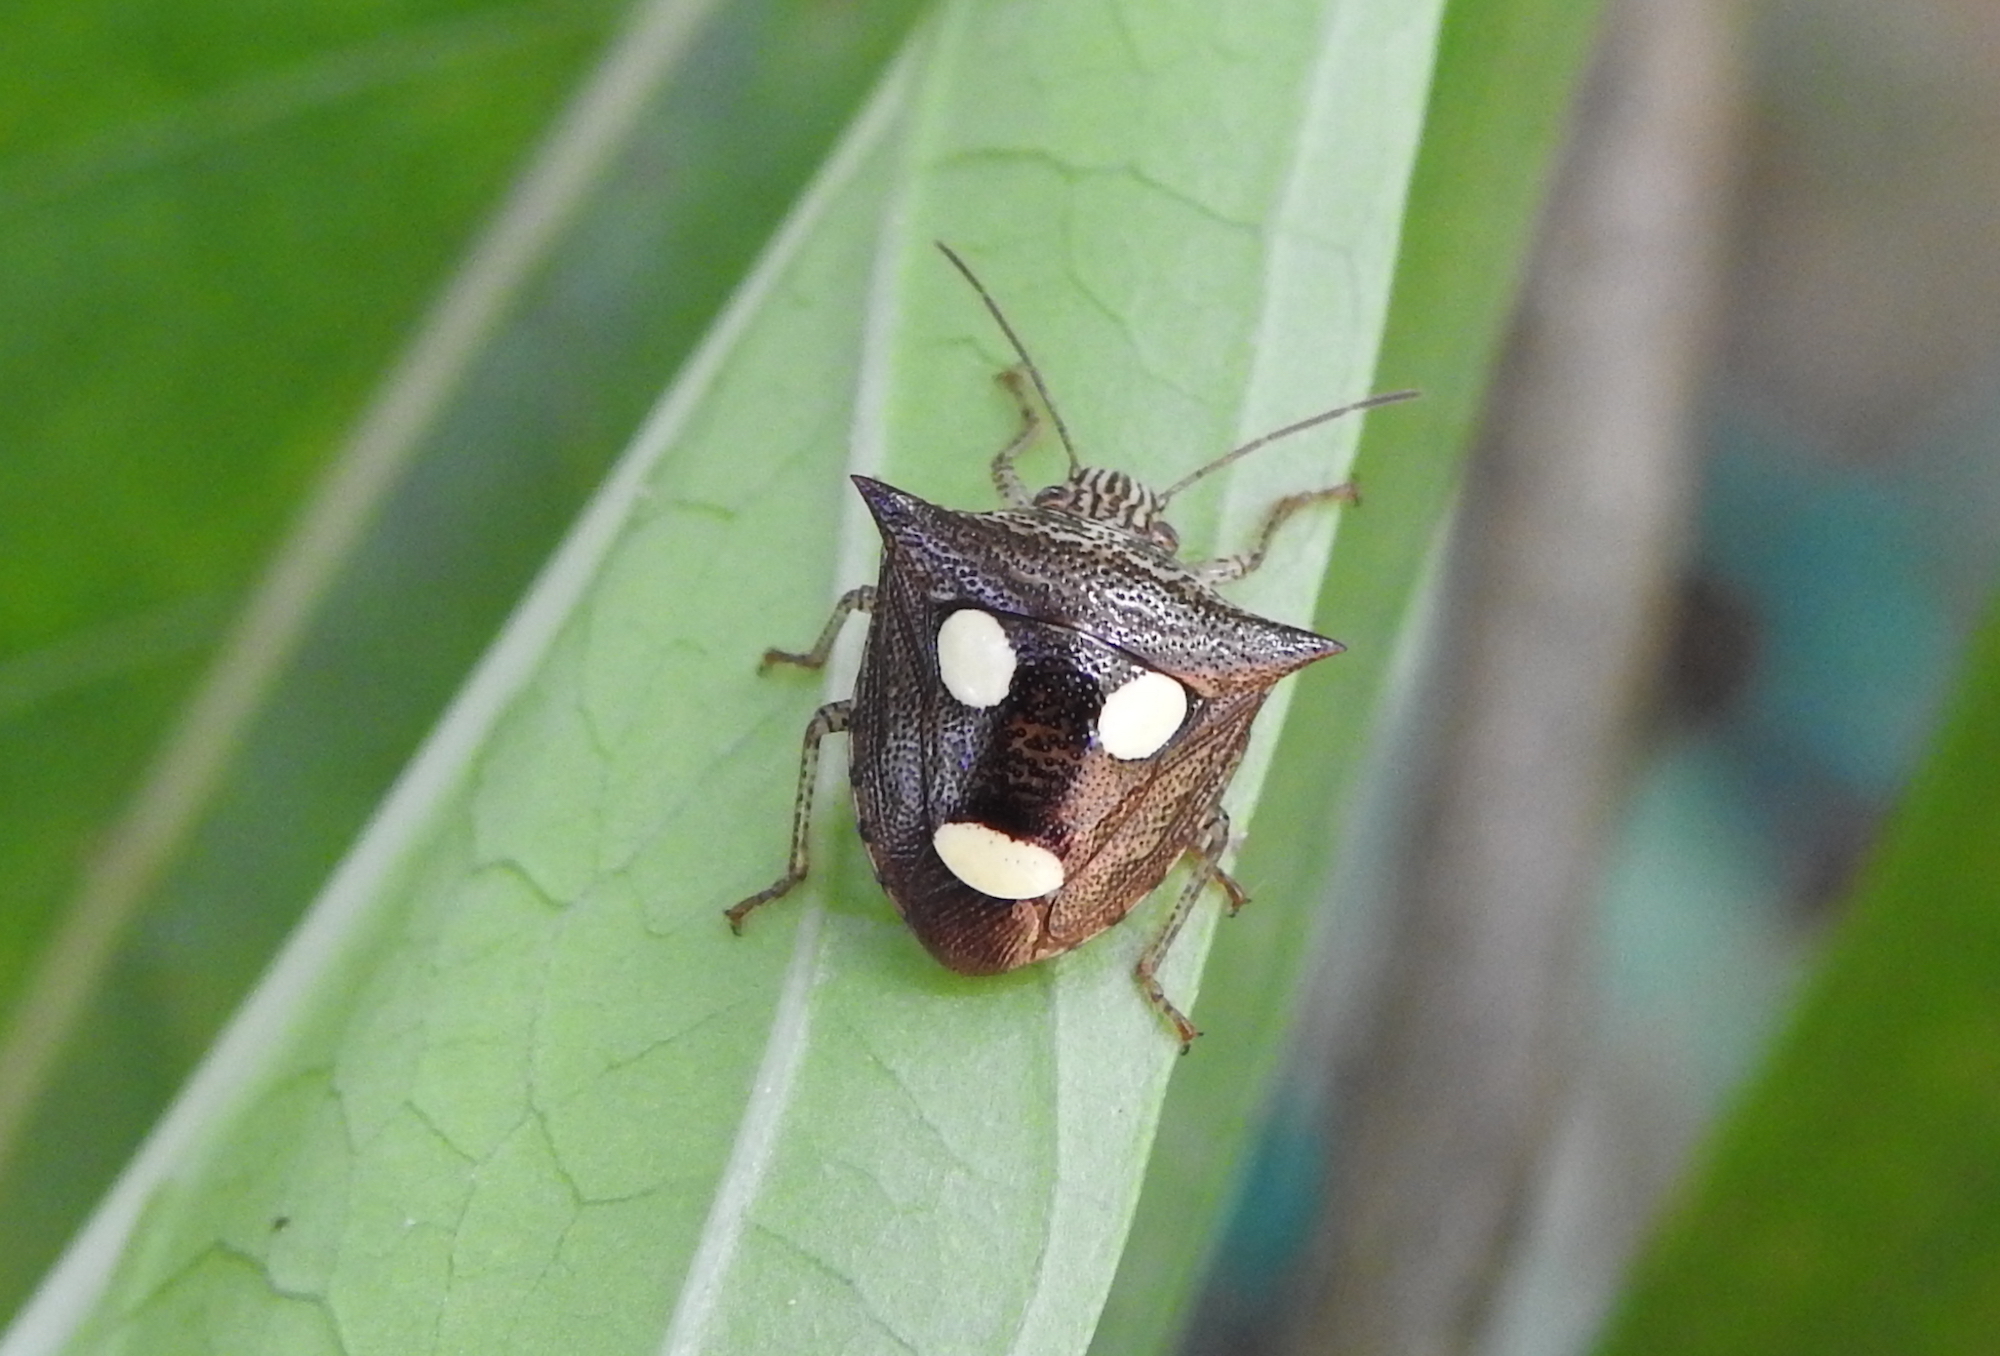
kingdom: Animalia
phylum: Arthropoda
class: Insecta
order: Hemiptera
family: Pentatomidae
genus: Paracritheus
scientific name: Paracritheus
